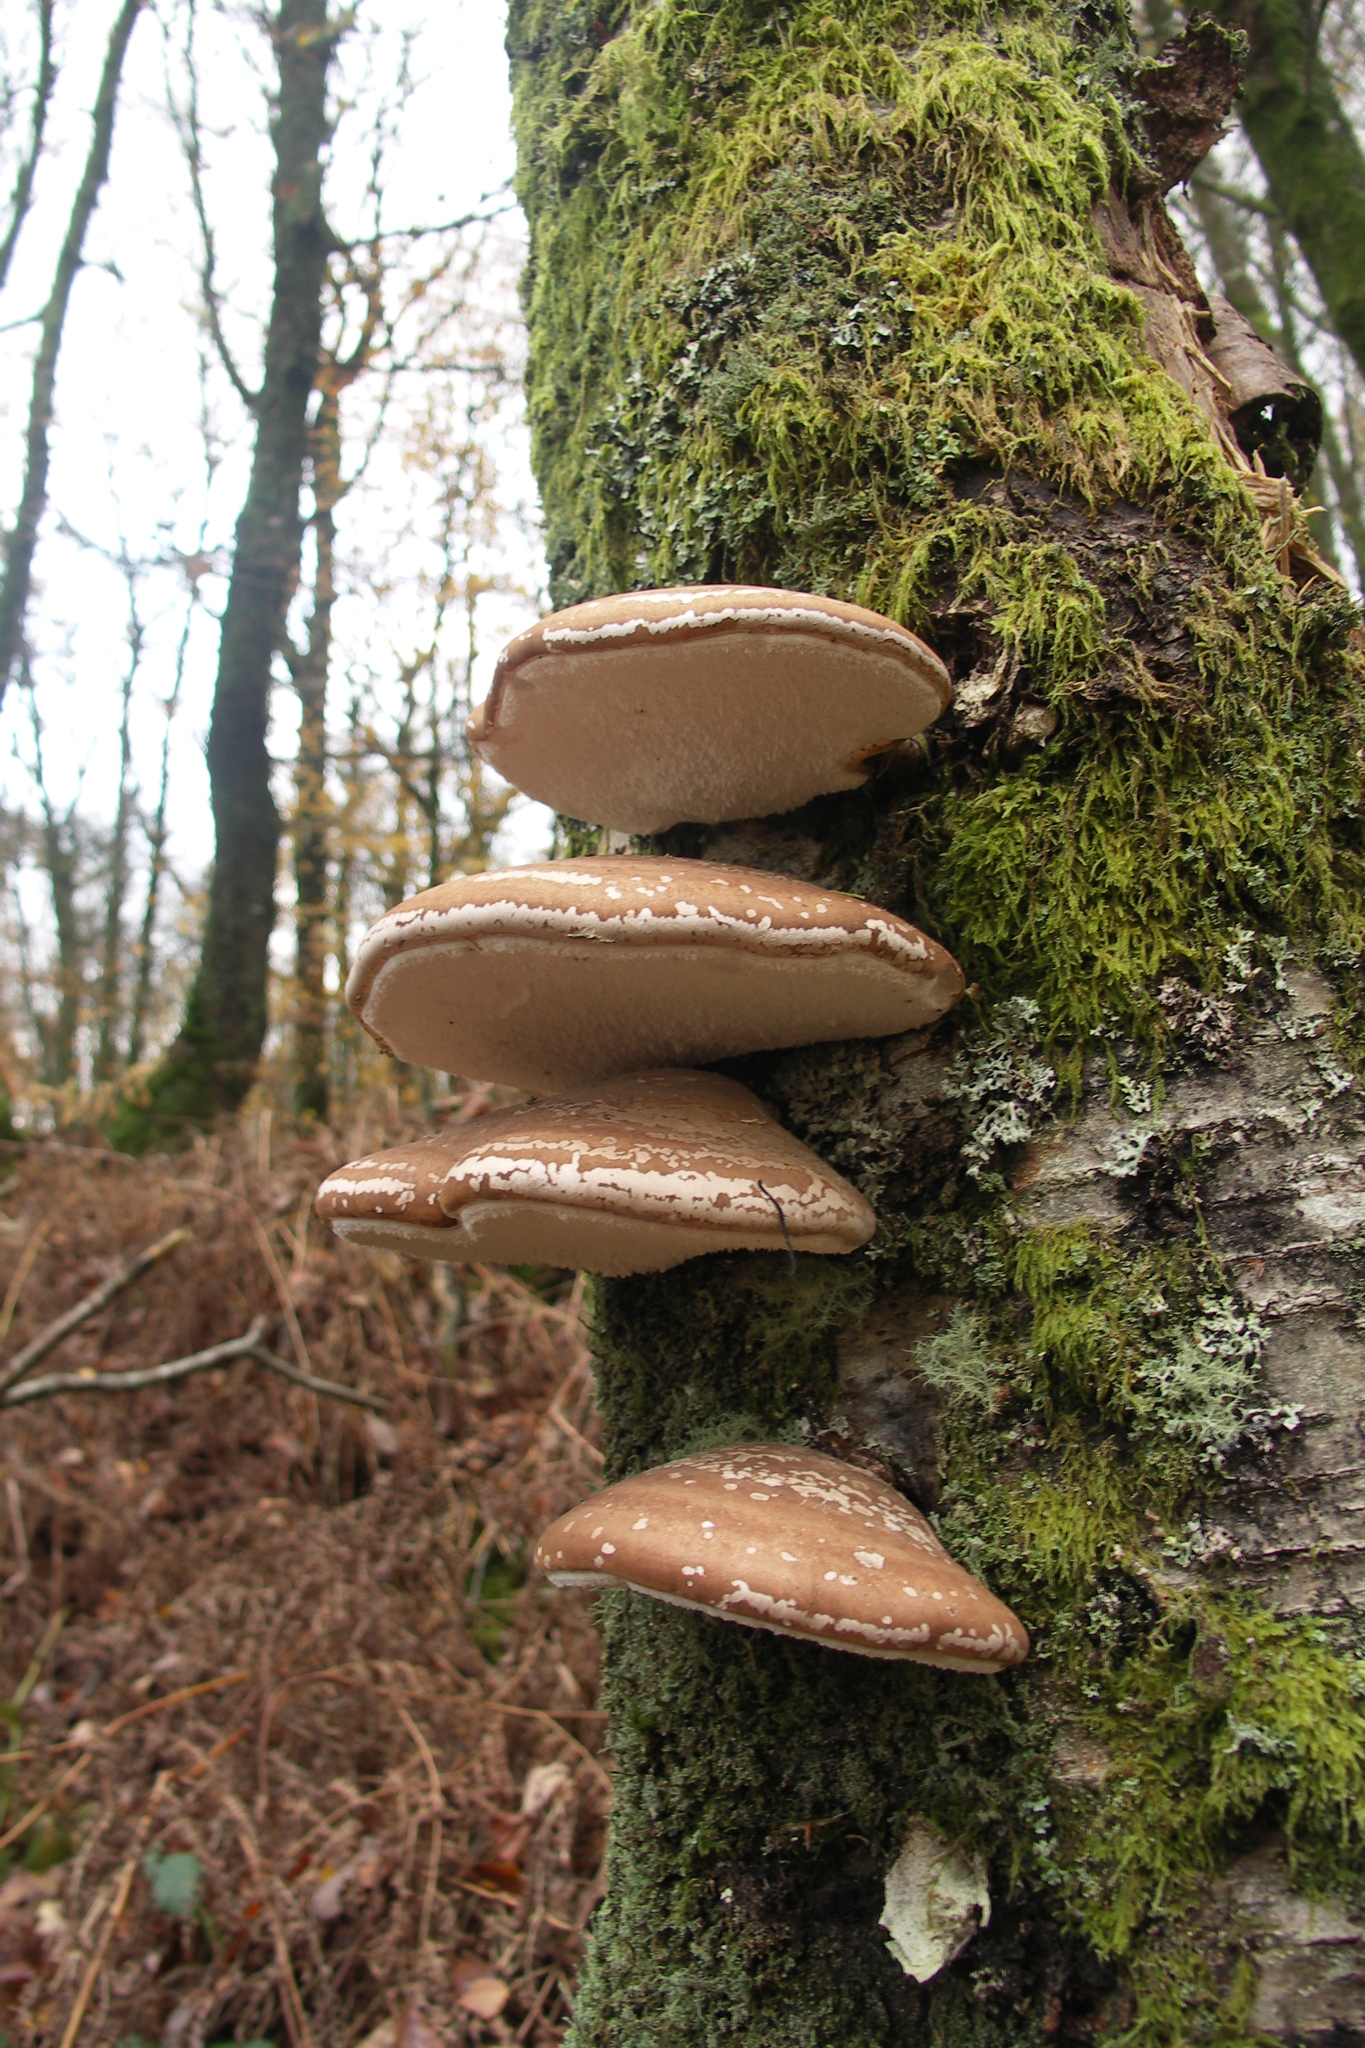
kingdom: Fungi
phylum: Basidiomycota
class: Agaricomycetes
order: Polyporales
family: Fomitopsidaceae
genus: Fomitopsis
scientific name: Fomitopsis betulina
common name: Birch polypore
